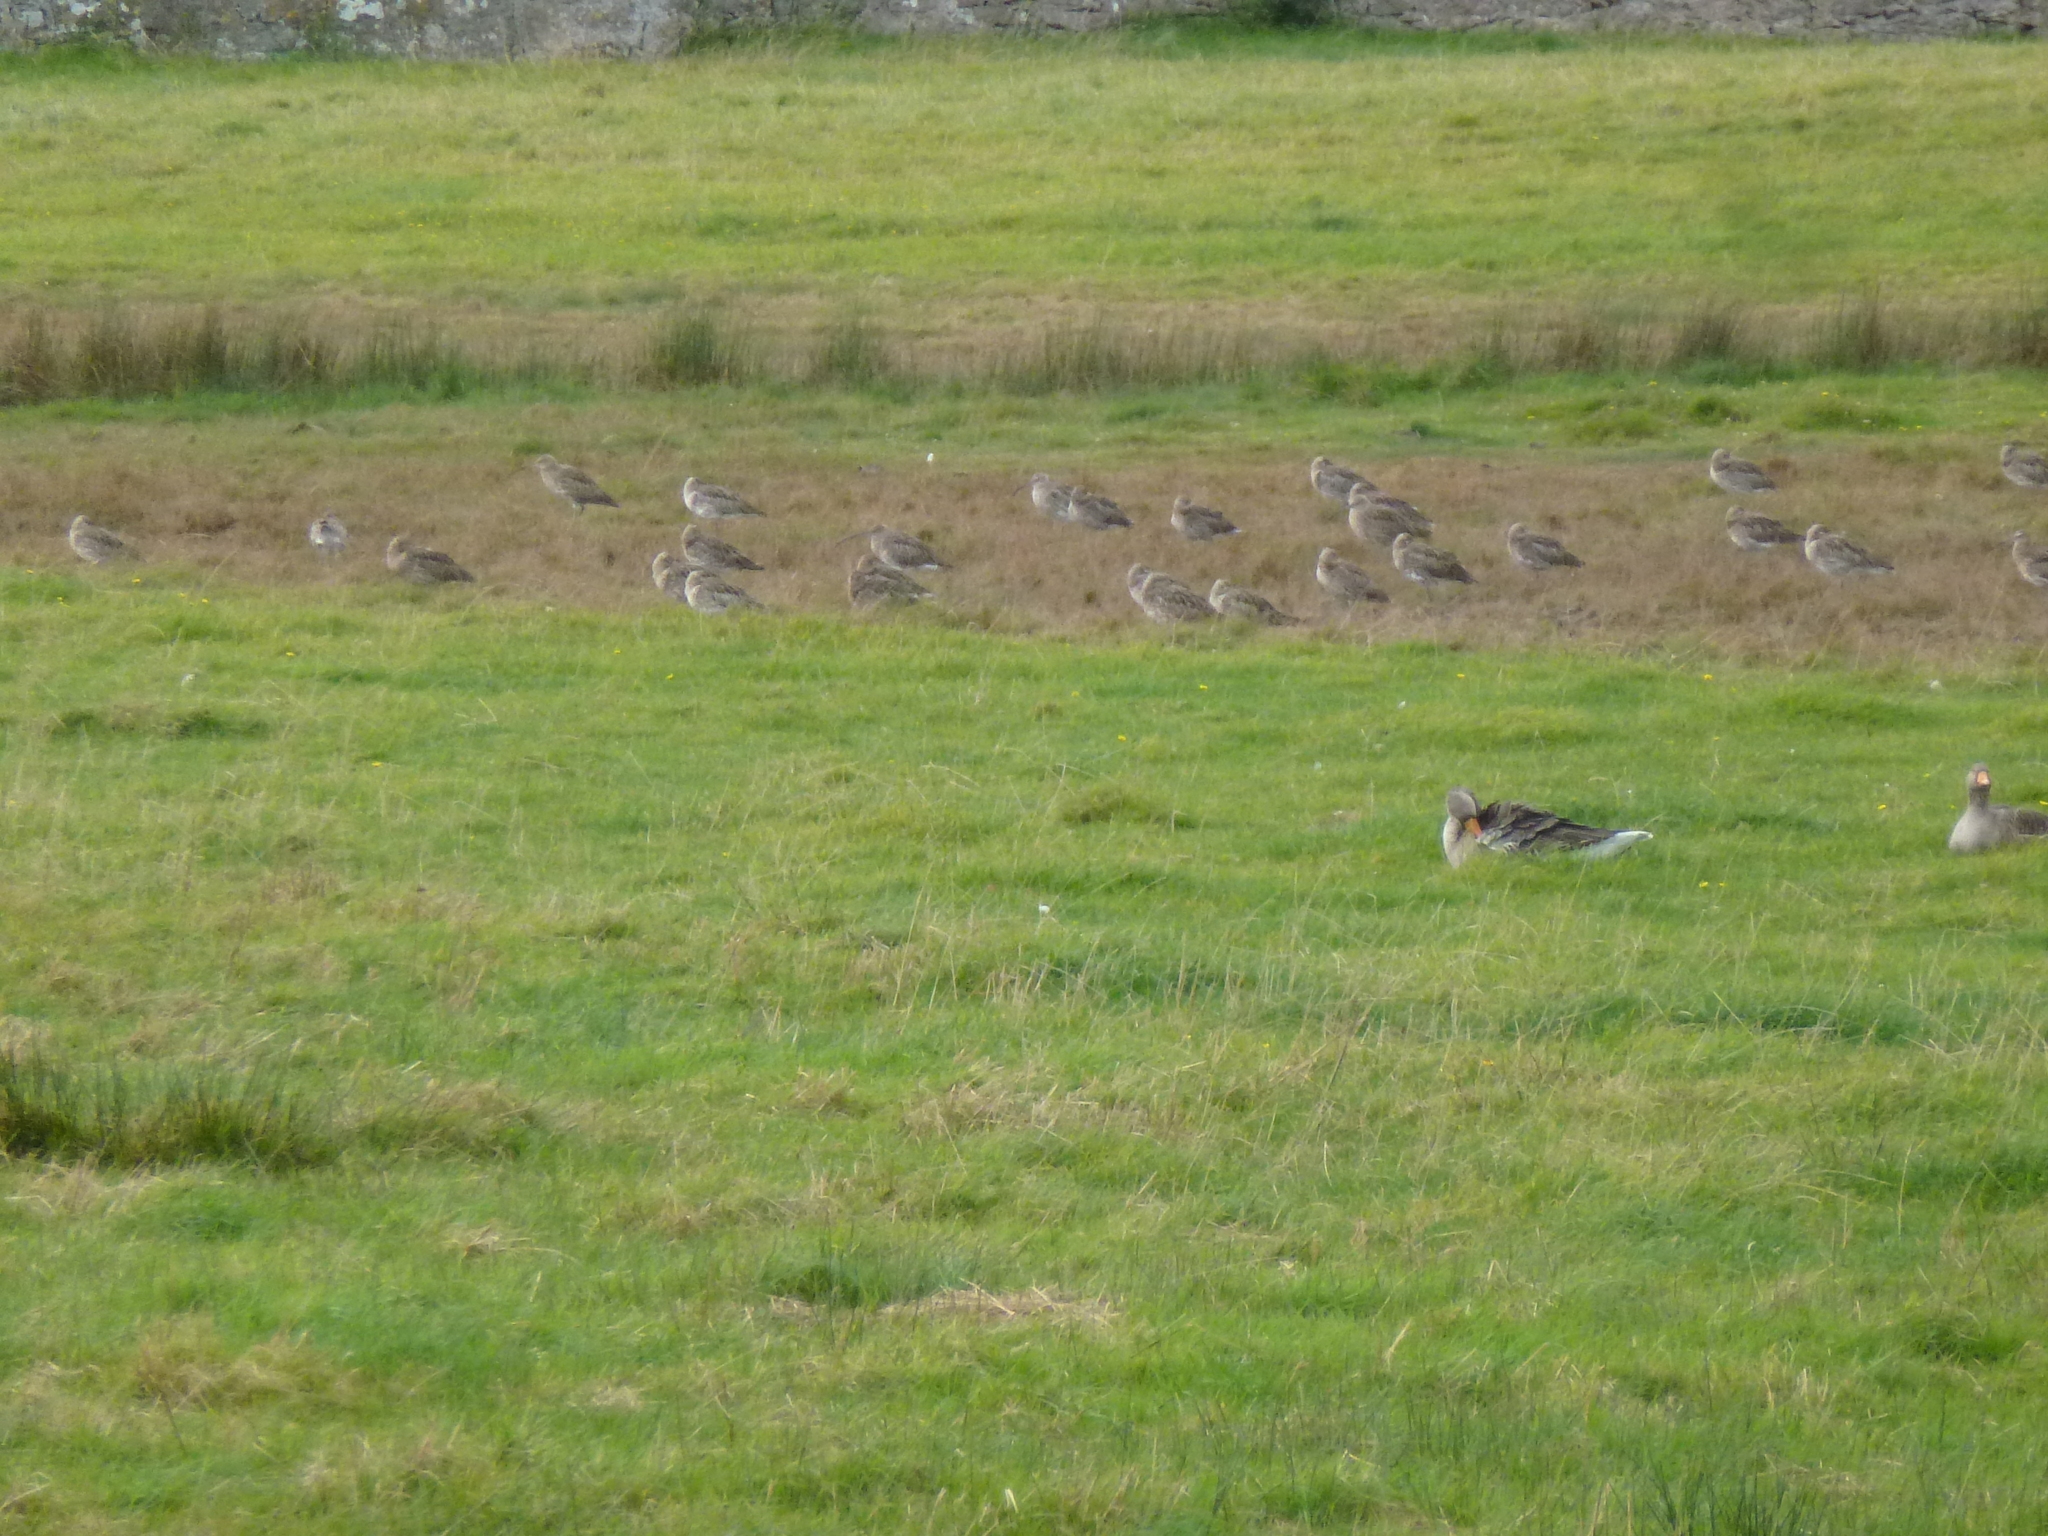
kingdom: Animalia
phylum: Chordata
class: Aves
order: Charadriiformes
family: Scolopacidae
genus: Numenius
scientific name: Numenius arquata
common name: Eurasian curlew
